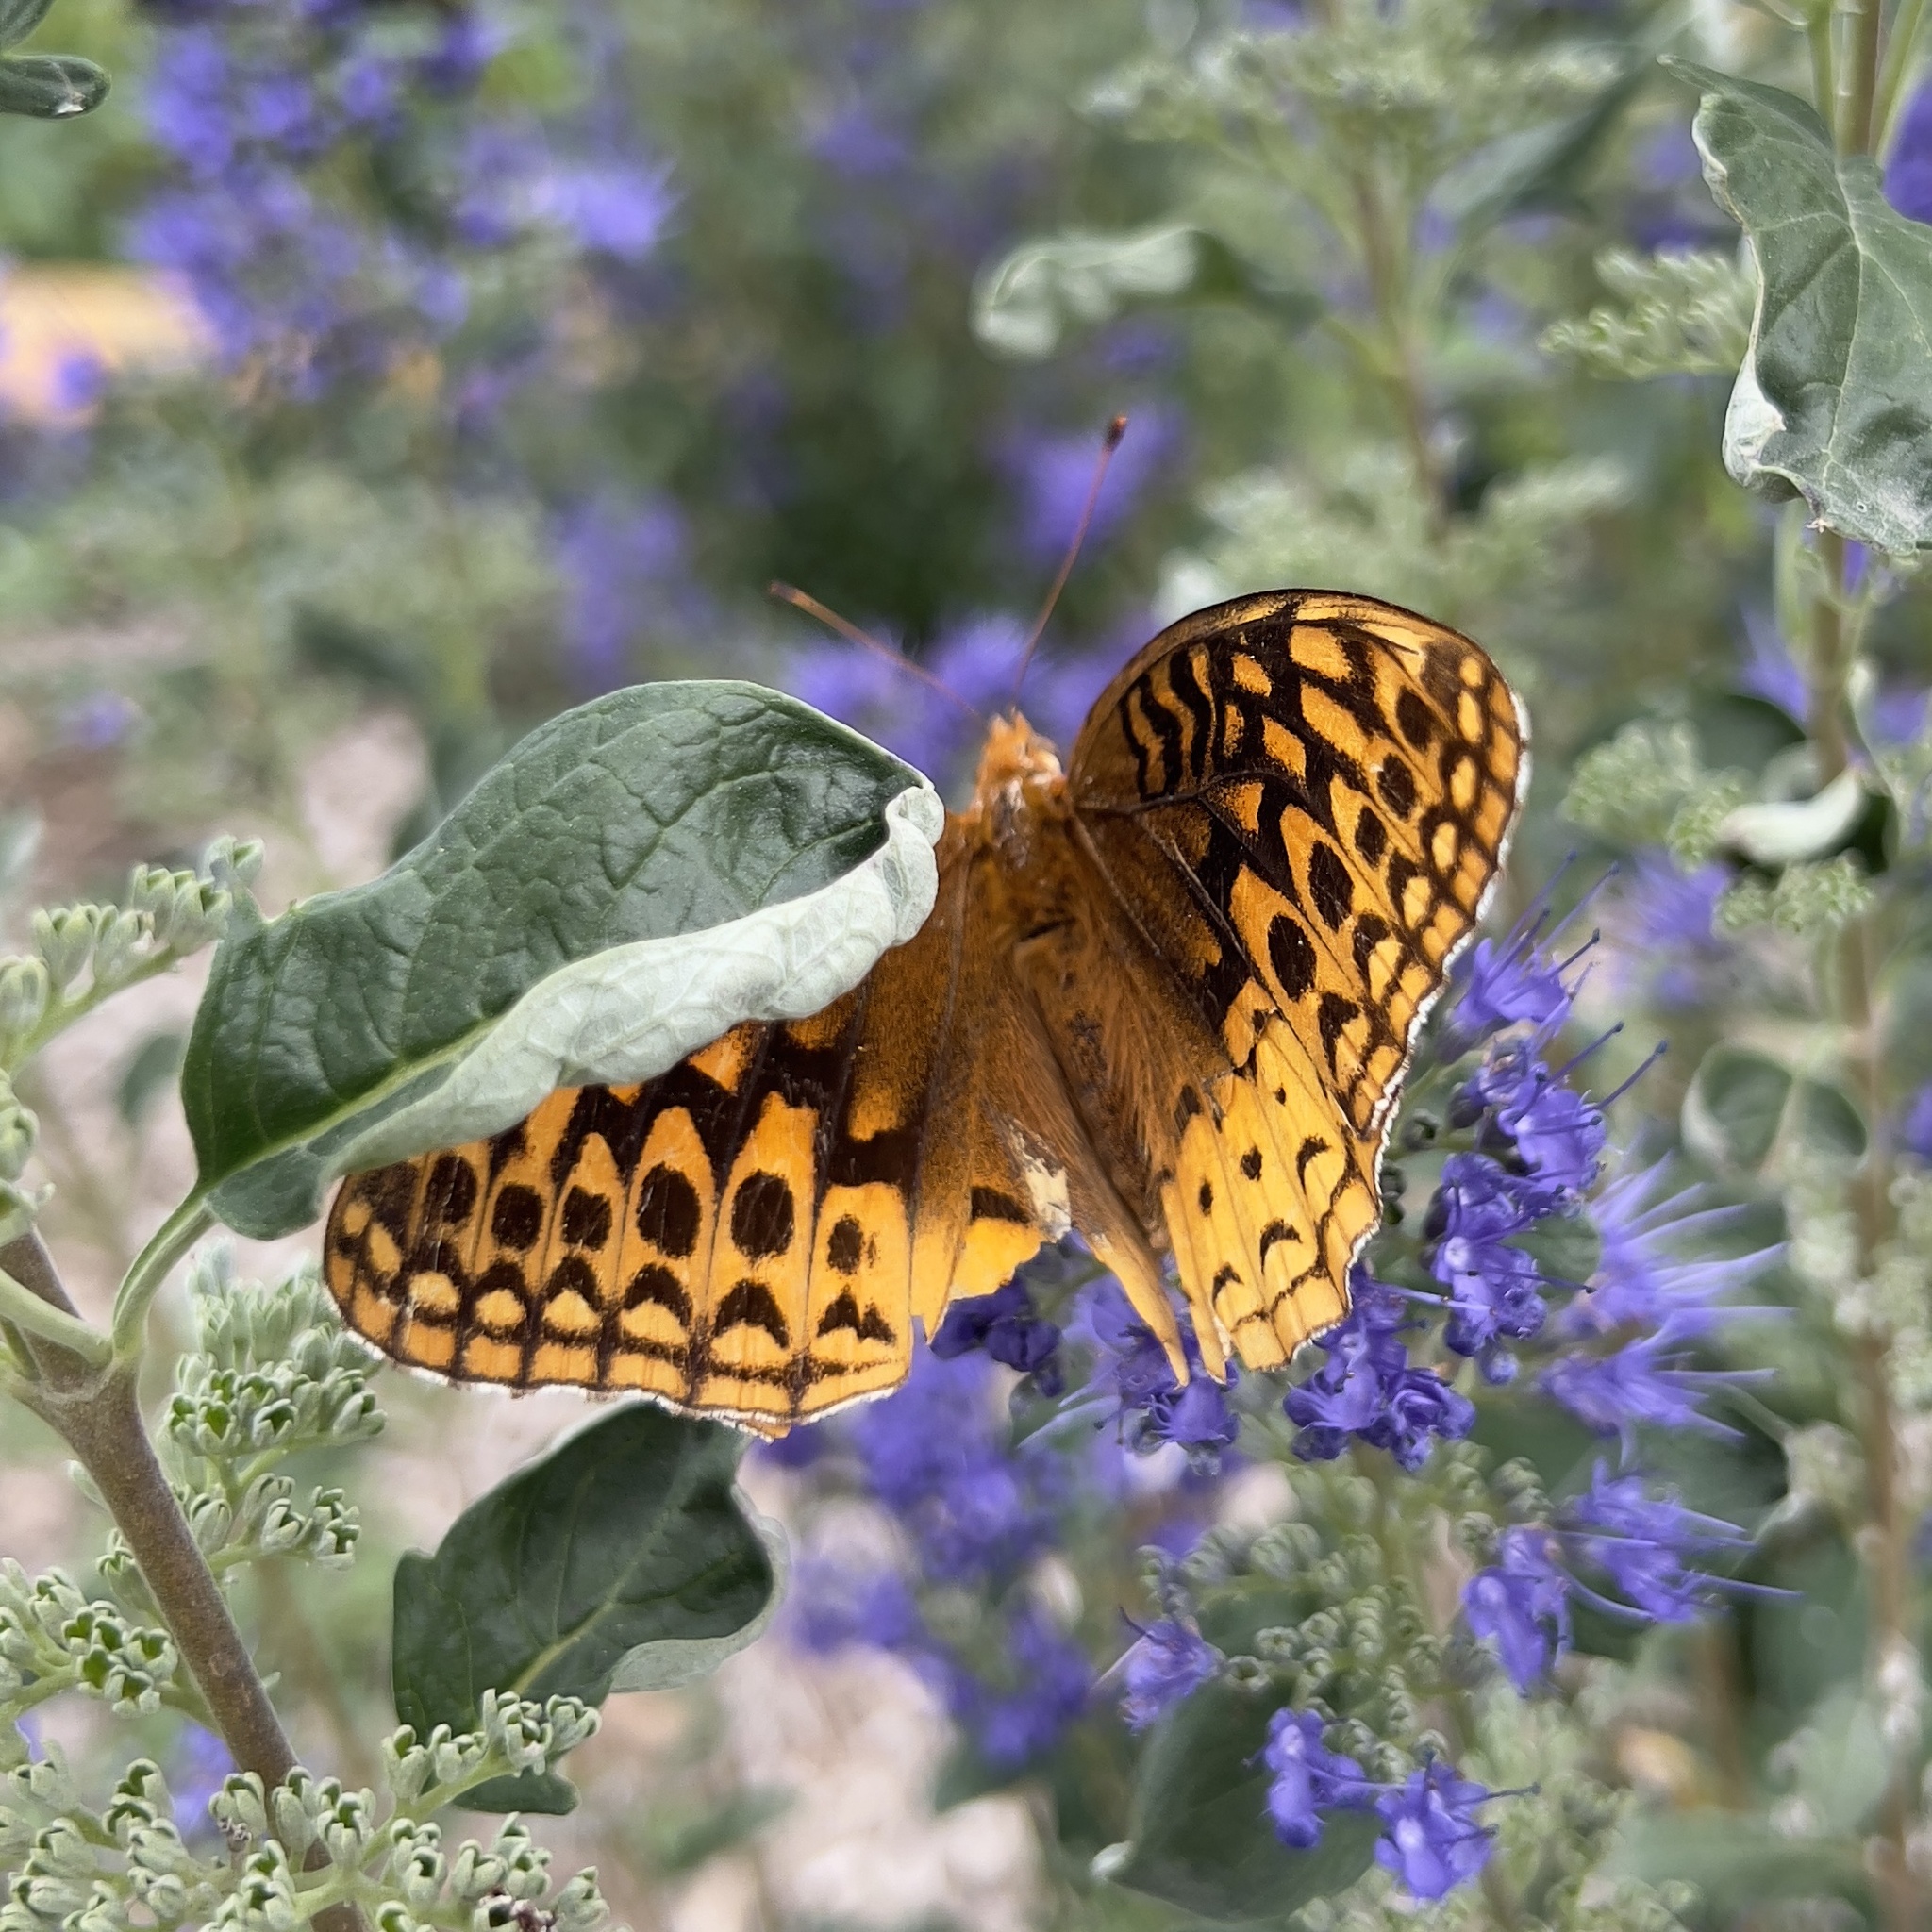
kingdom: Animalia
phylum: Arthropoda
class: Insecta
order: Lepidoptera
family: Nymphalidae
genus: Speyeria
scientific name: Speyeria cybele
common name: Great spangled fritillary
